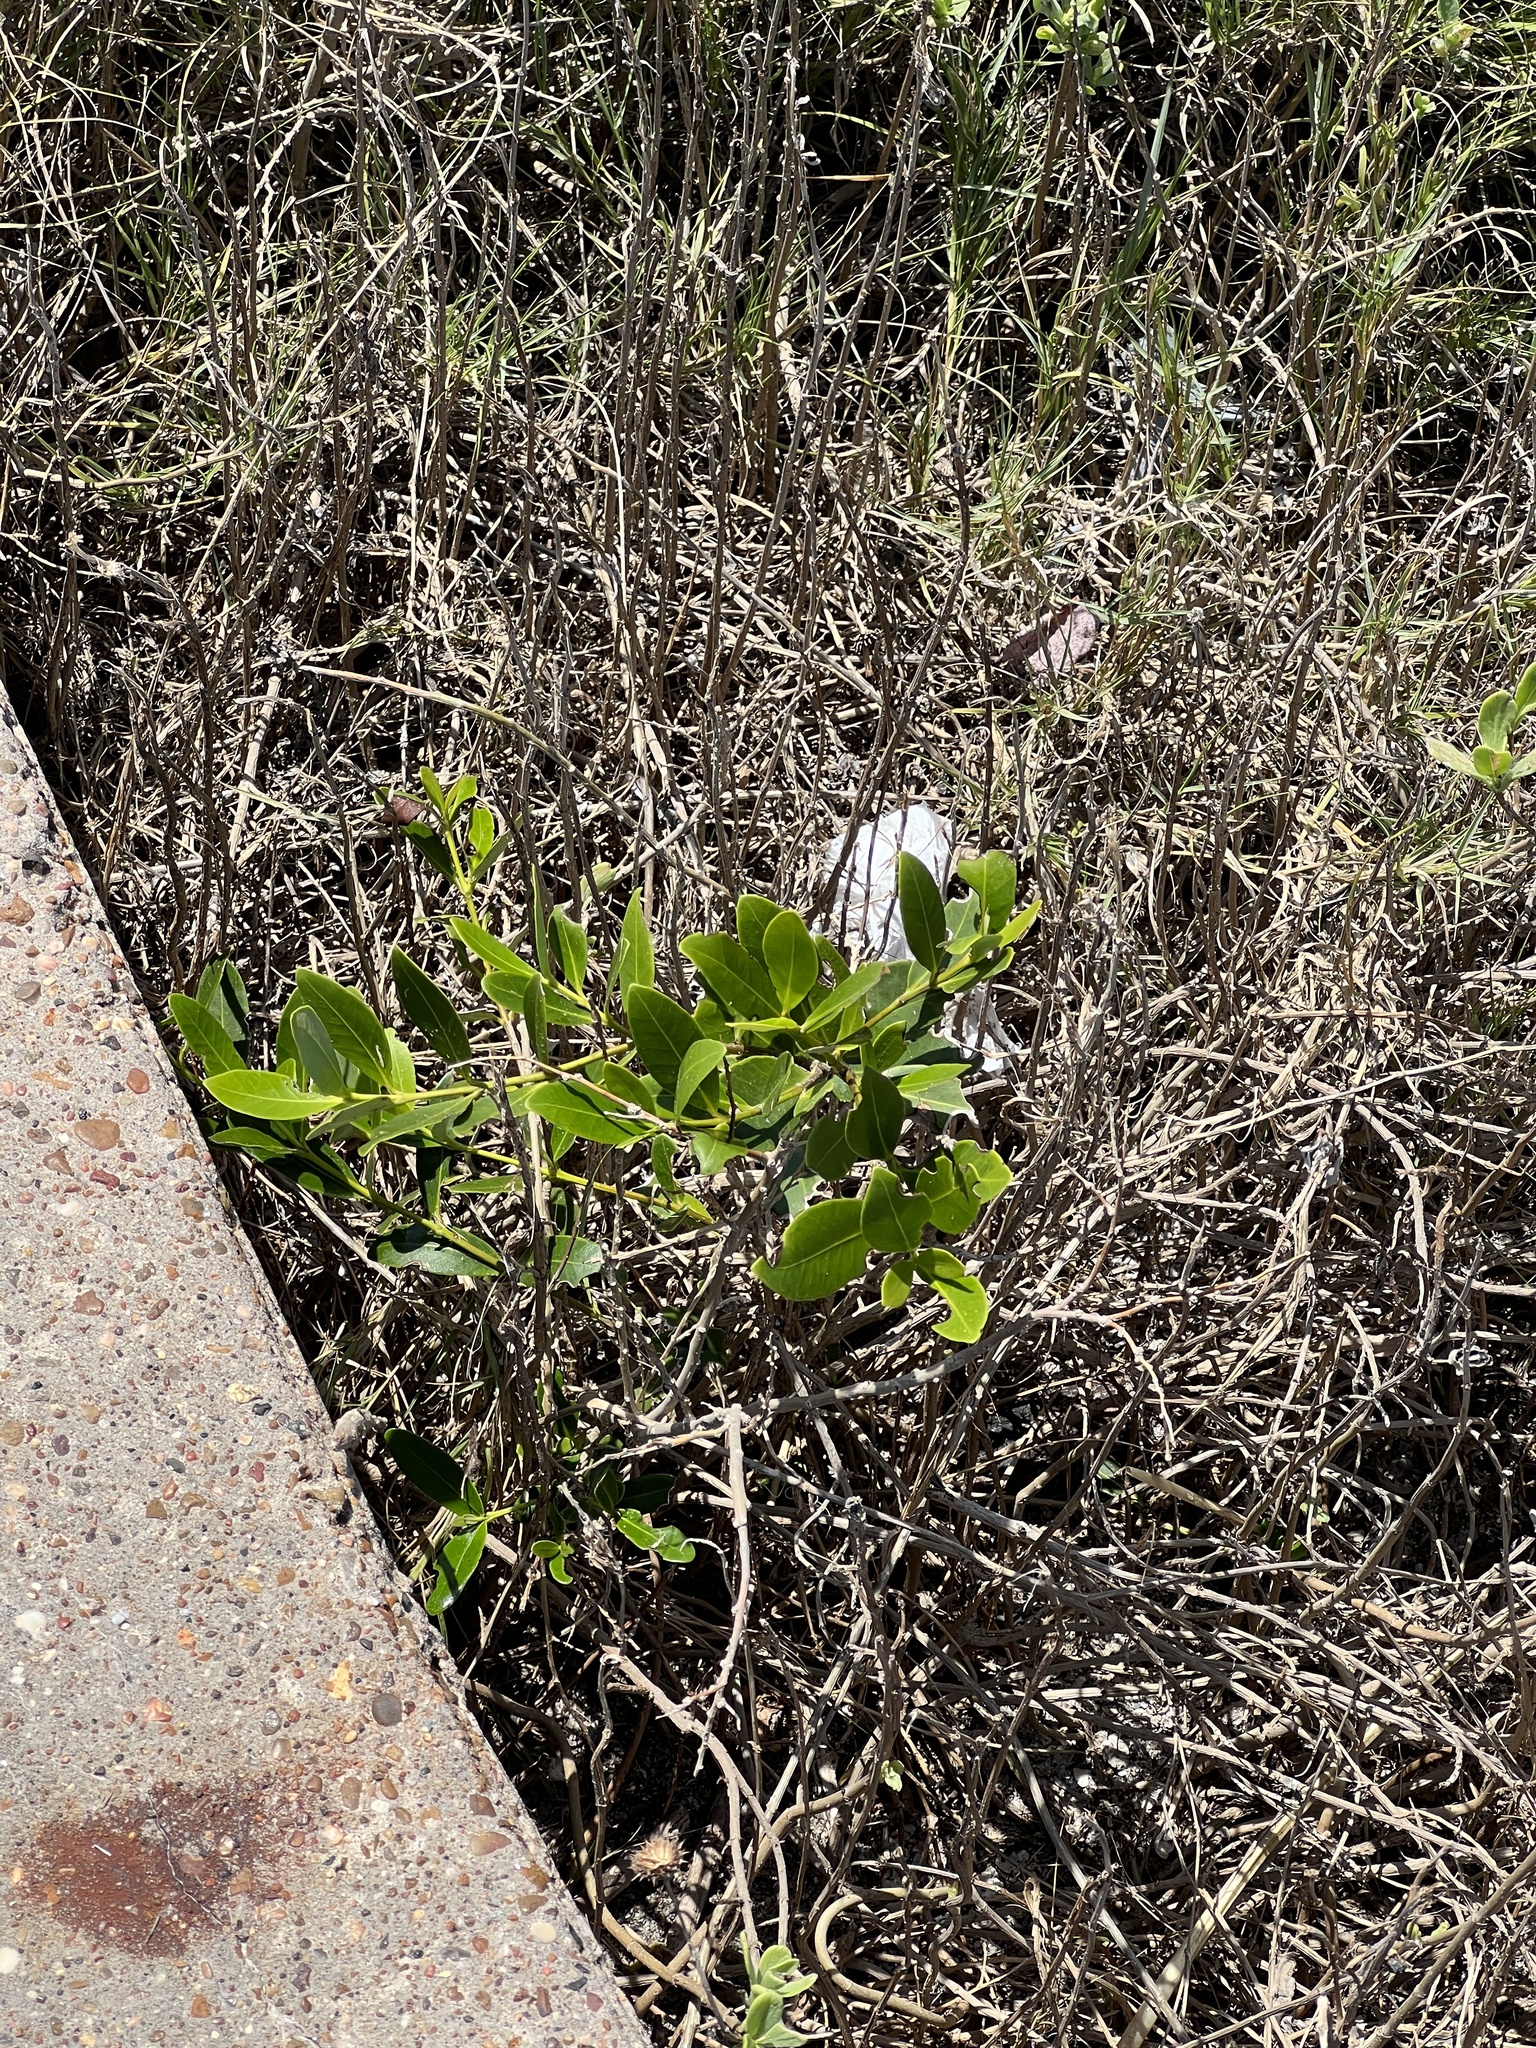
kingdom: Plantae
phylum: Tracheophyta
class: Magnoliopsida
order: Lamiales
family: Acanthaceae
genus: Avicennia
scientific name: Avicennia germinans
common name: Black mangrove
